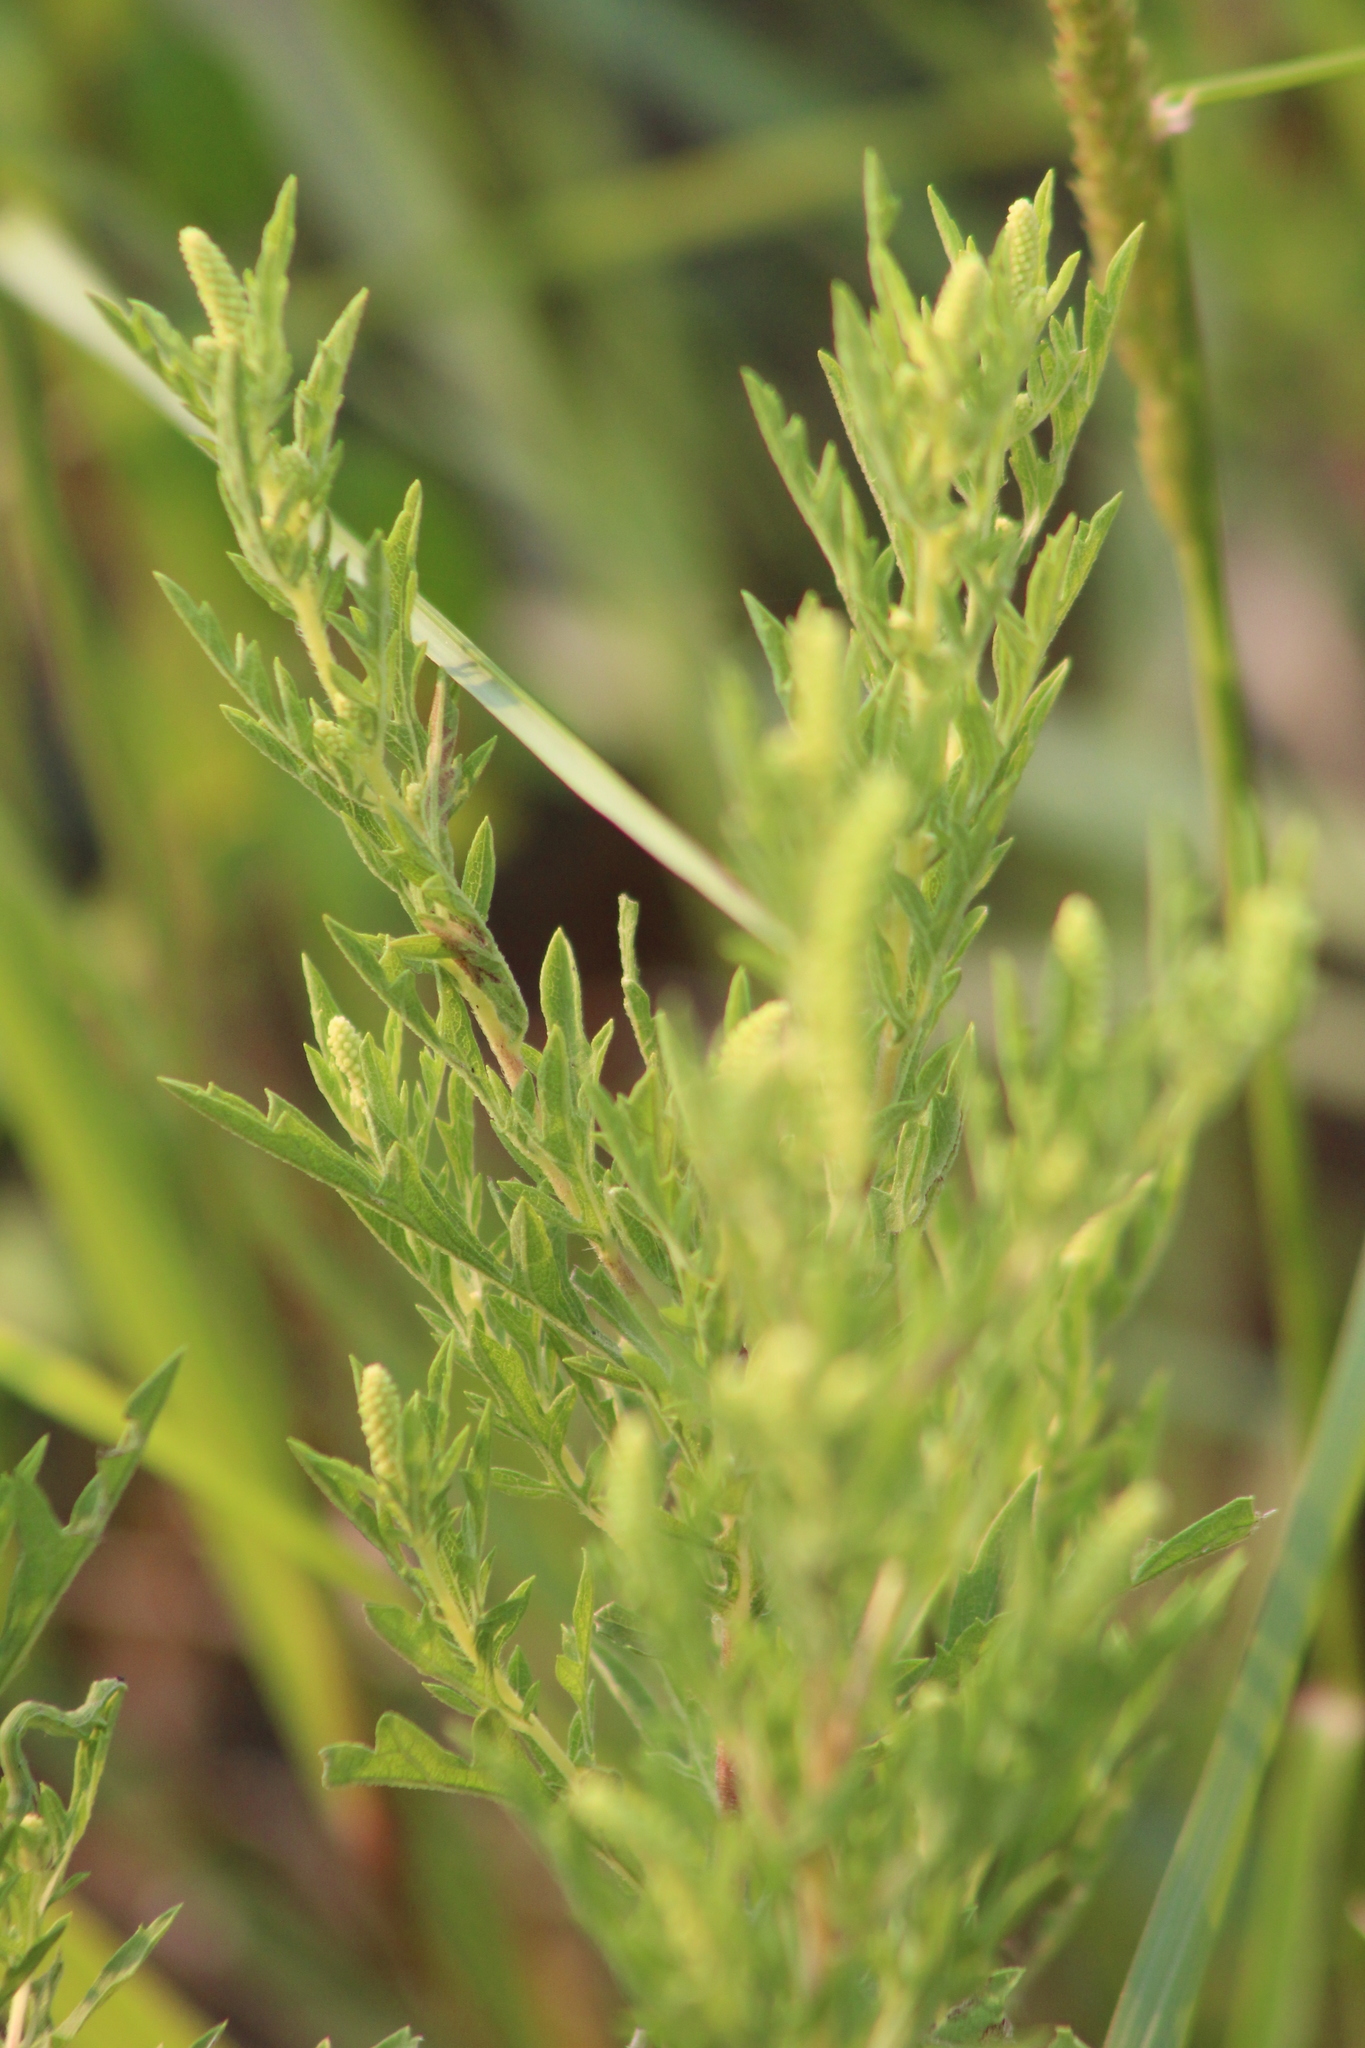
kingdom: Plantae
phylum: Tracheophyta
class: Magnoliopsida
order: Asterales
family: Asteraceae
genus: Ambrosia
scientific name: Ambrosia psilostachya
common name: Perennial ragweed
